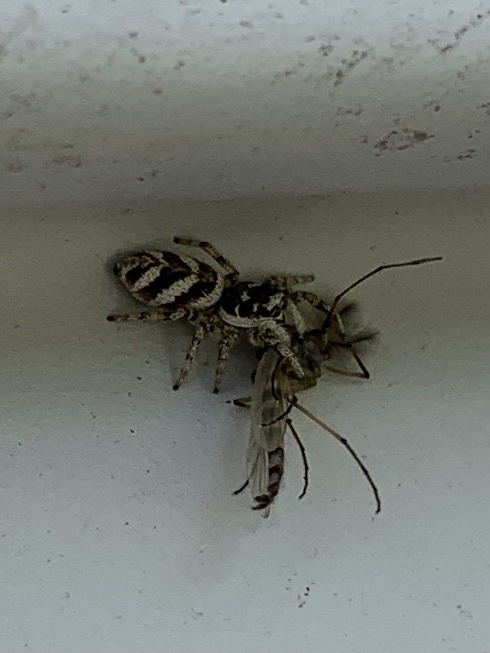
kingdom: Animalia
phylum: Arthropoda
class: Arachnida
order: Araneae
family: Salticidae
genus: Salticus
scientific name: Salticus scenicus
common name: Zebra jumper
